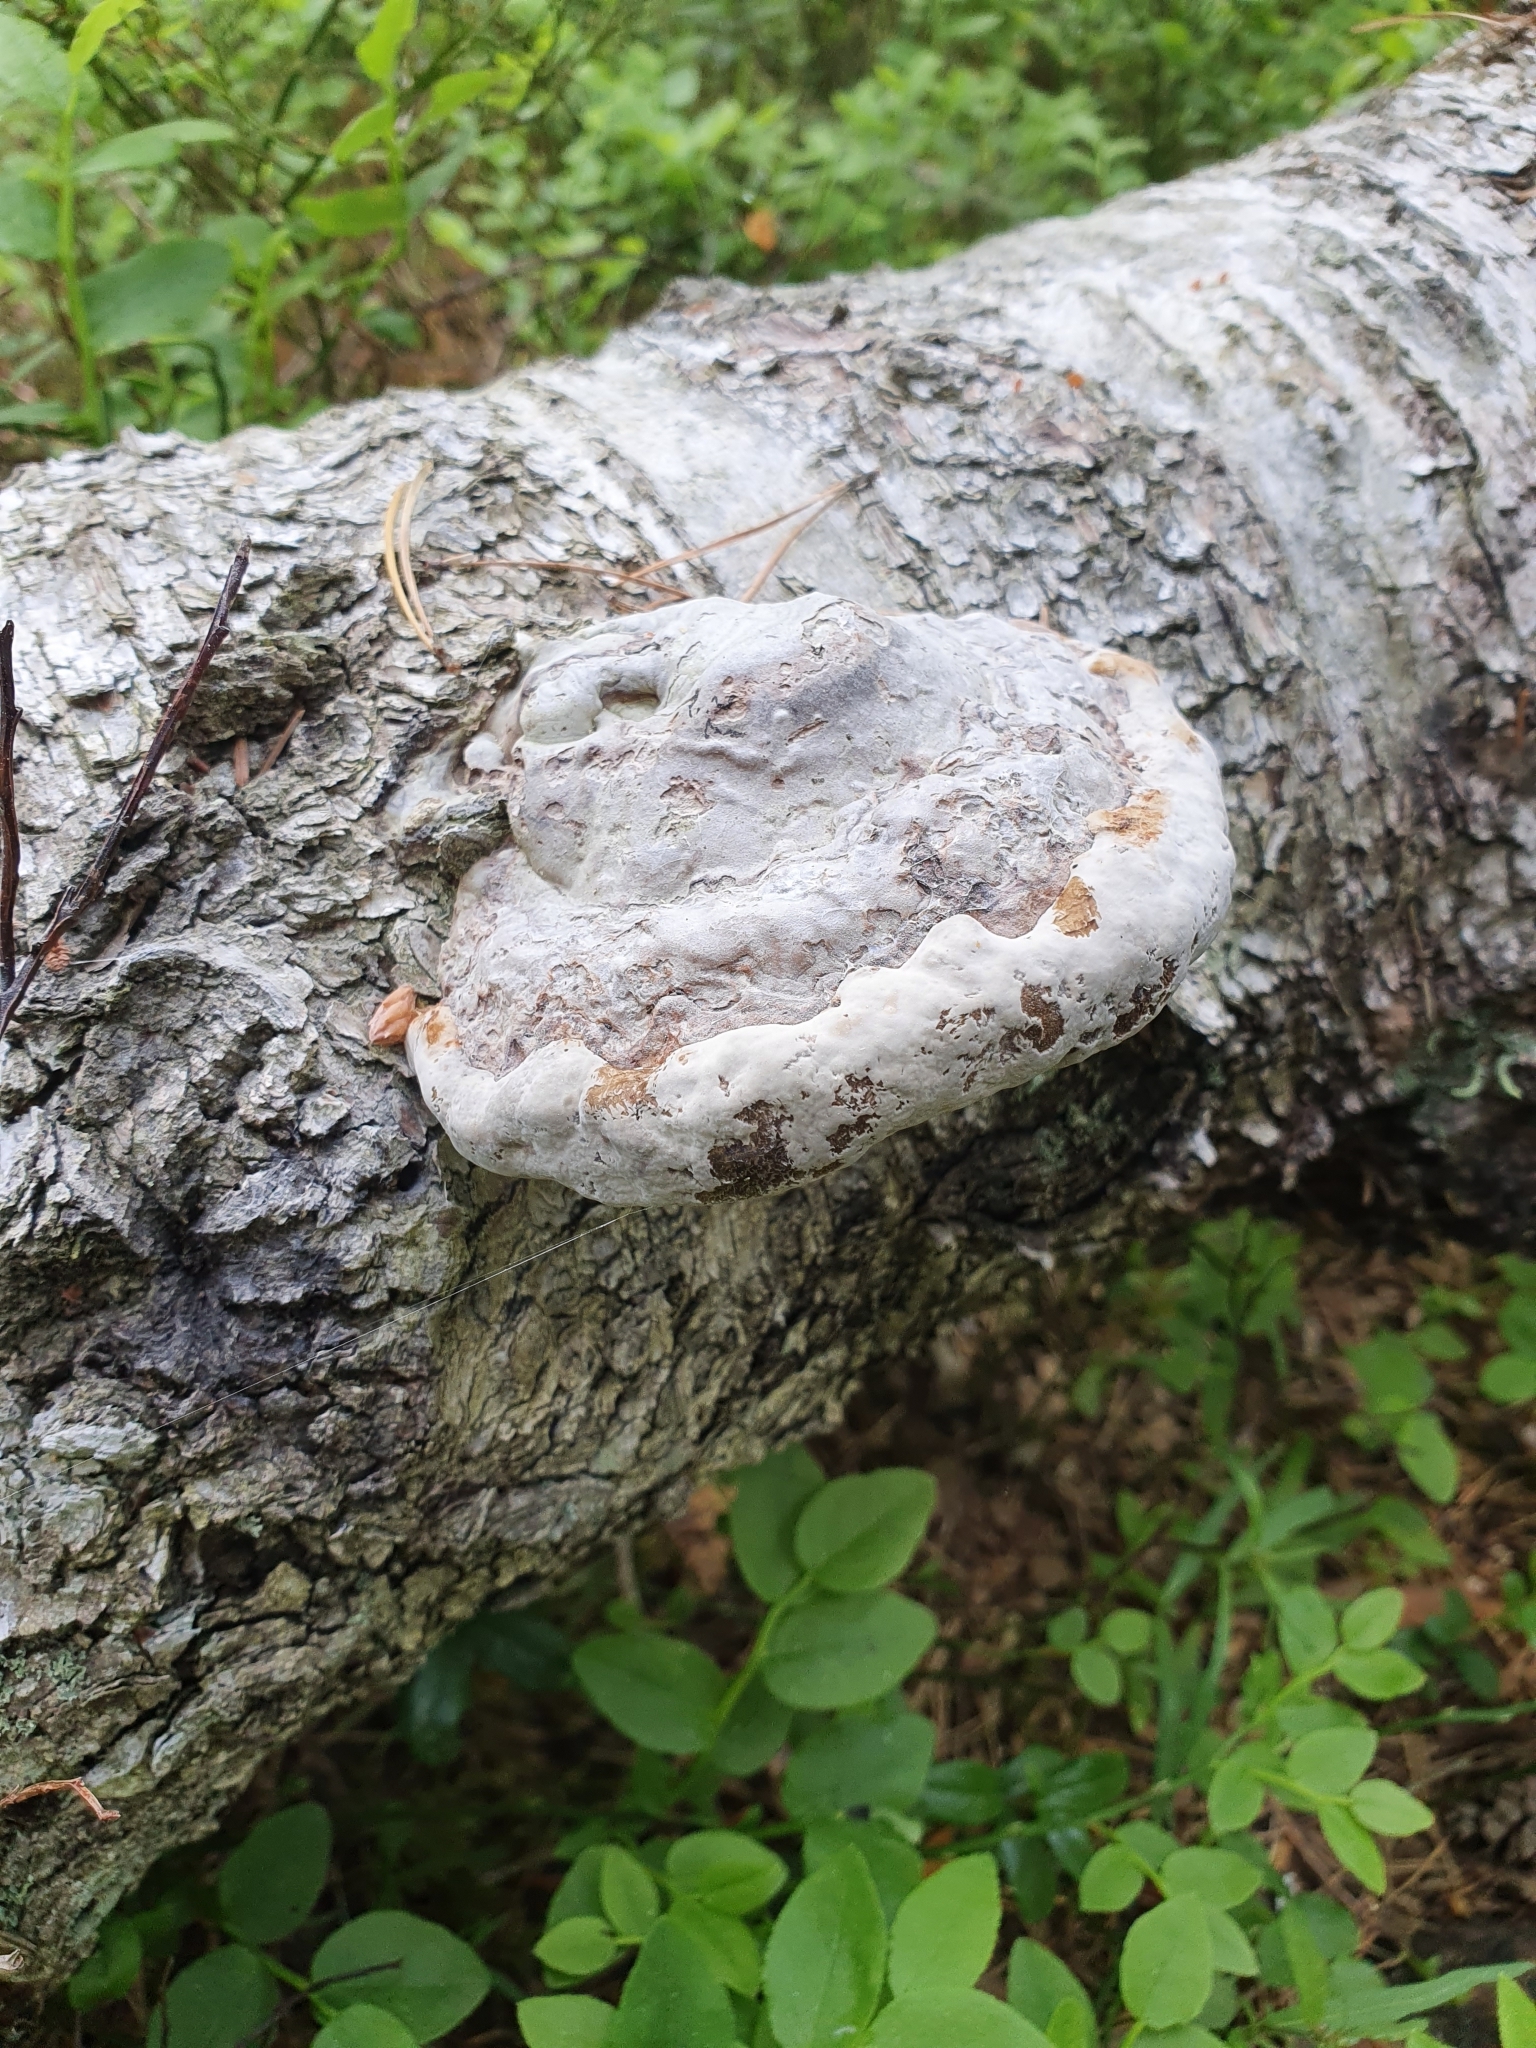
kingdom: Fungi
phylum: Basidiomycota
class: Agaricomycetes
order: Polyporales
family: Polyporaceae
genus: Fomes
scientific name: Fomes fomentarius
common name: Hoof fungus
